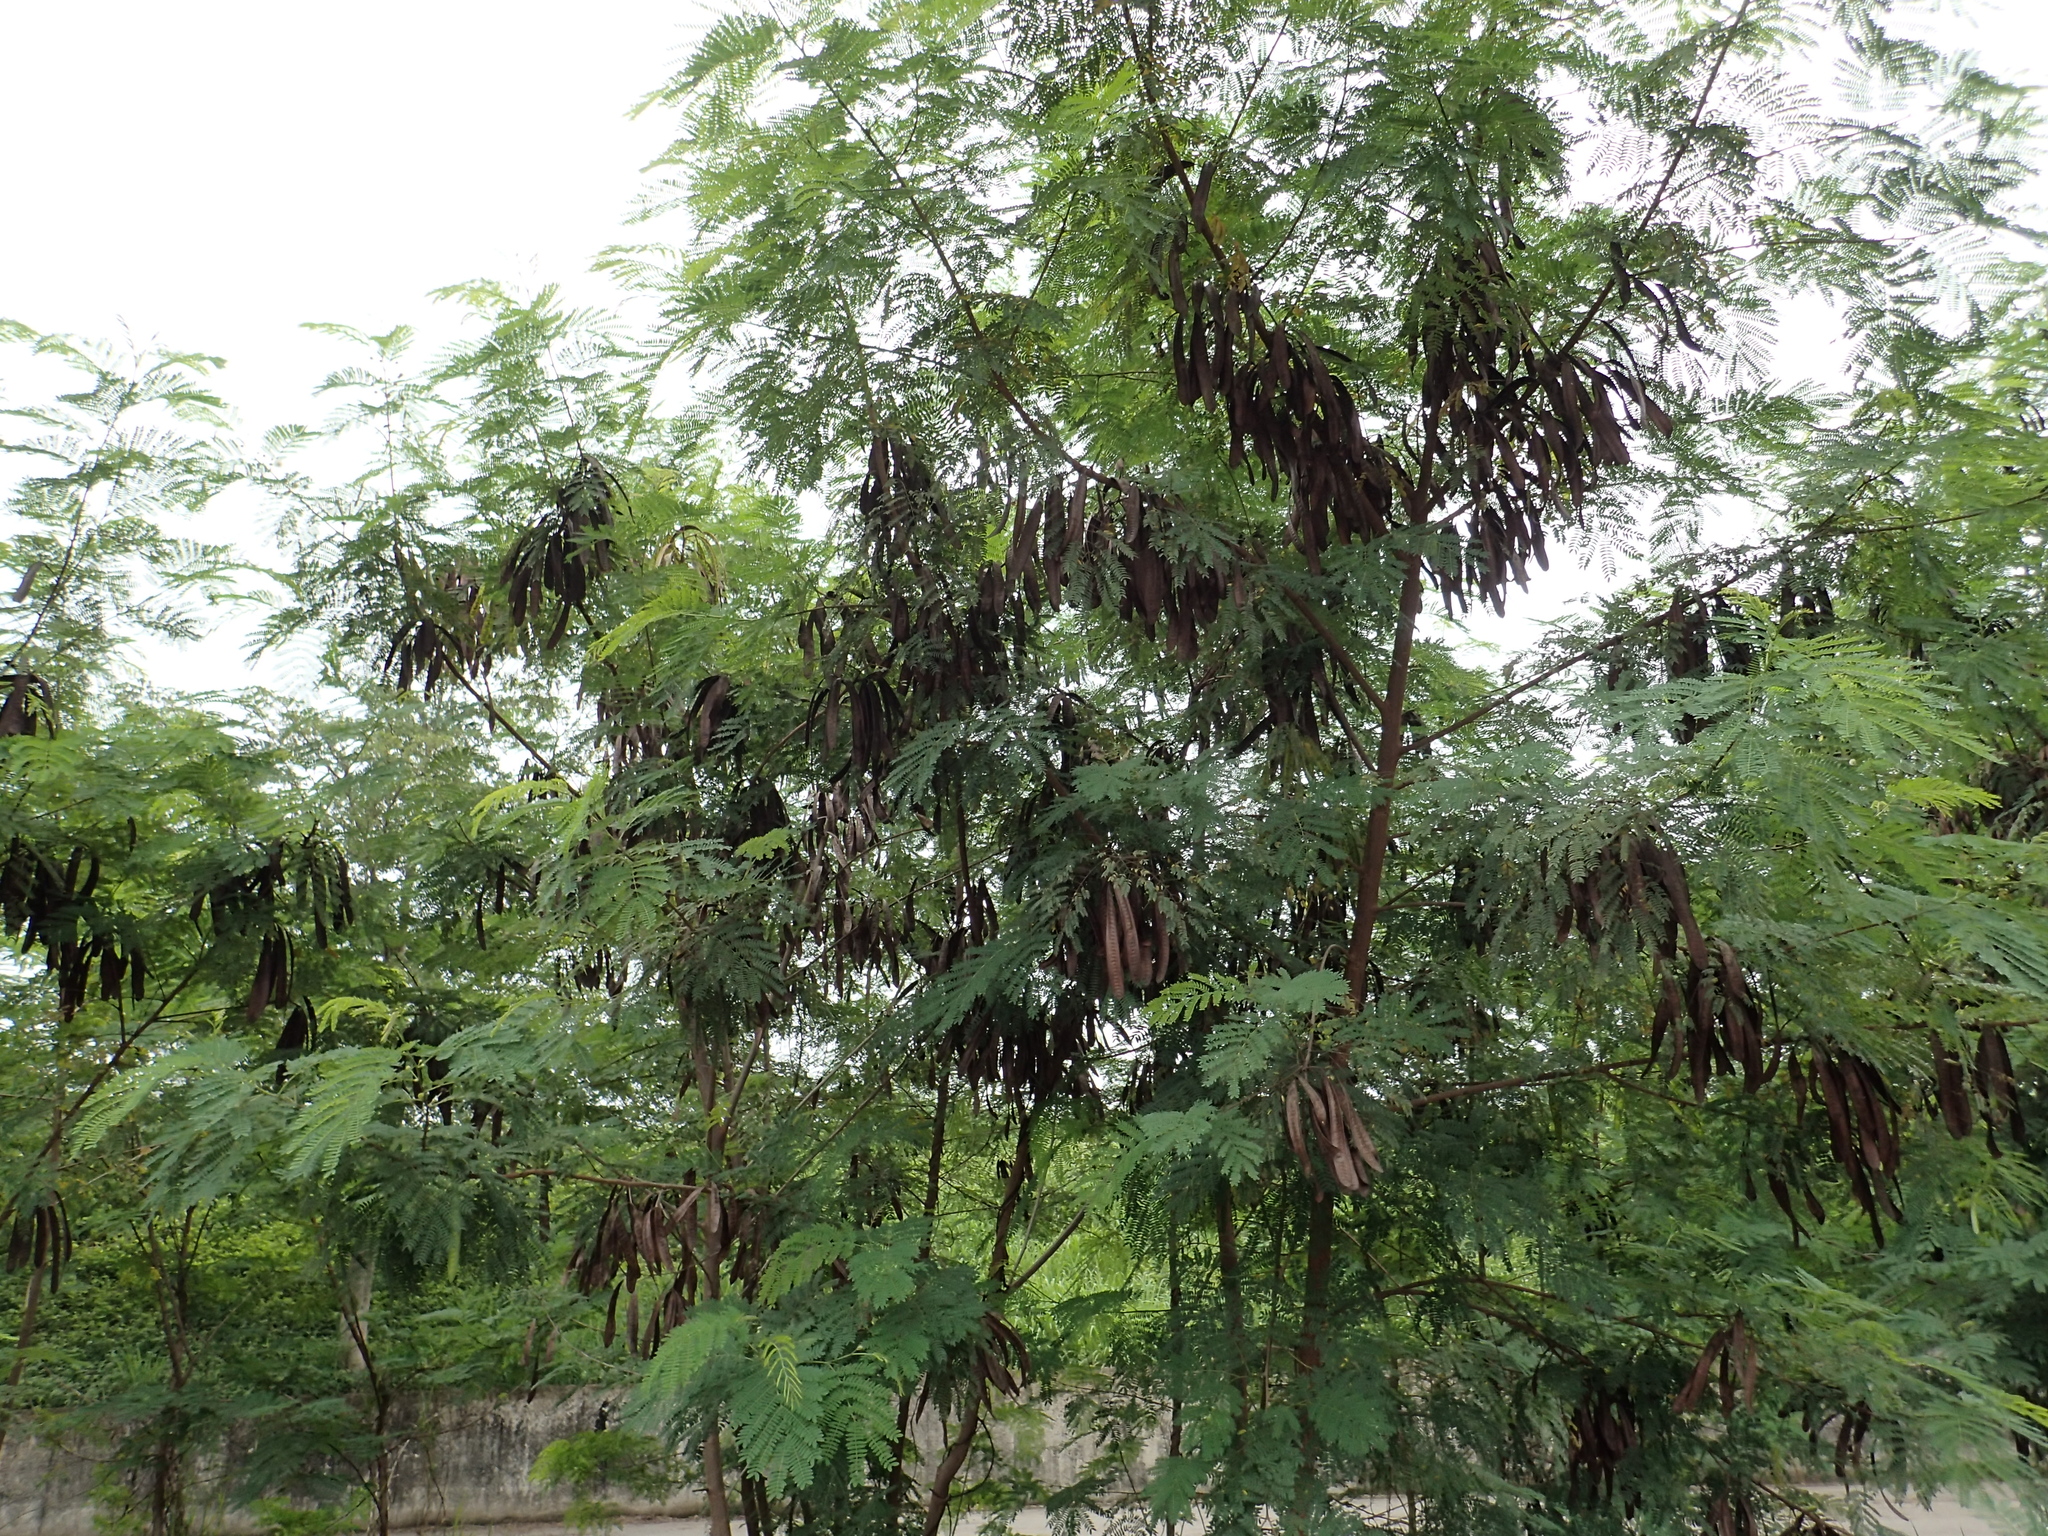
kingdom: Plantae
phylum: Tracheophyta
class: Magnoliopsida
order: Fabales
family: Fabaceae
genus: Leucaena
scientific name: Leucaena leucocephala
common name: White leadtree
